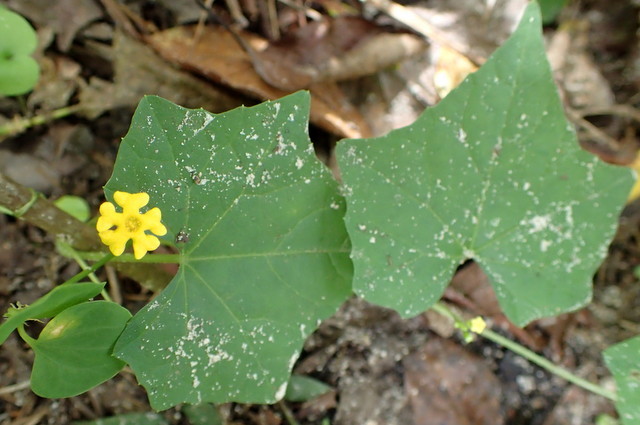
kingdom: Plantae
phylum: Tracheophyta
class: Magnoliopsida
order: Cucurbitales
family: Cucurbitaceae
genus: Melothria
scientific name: Melothria pendula
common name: Creeping-cucumber
